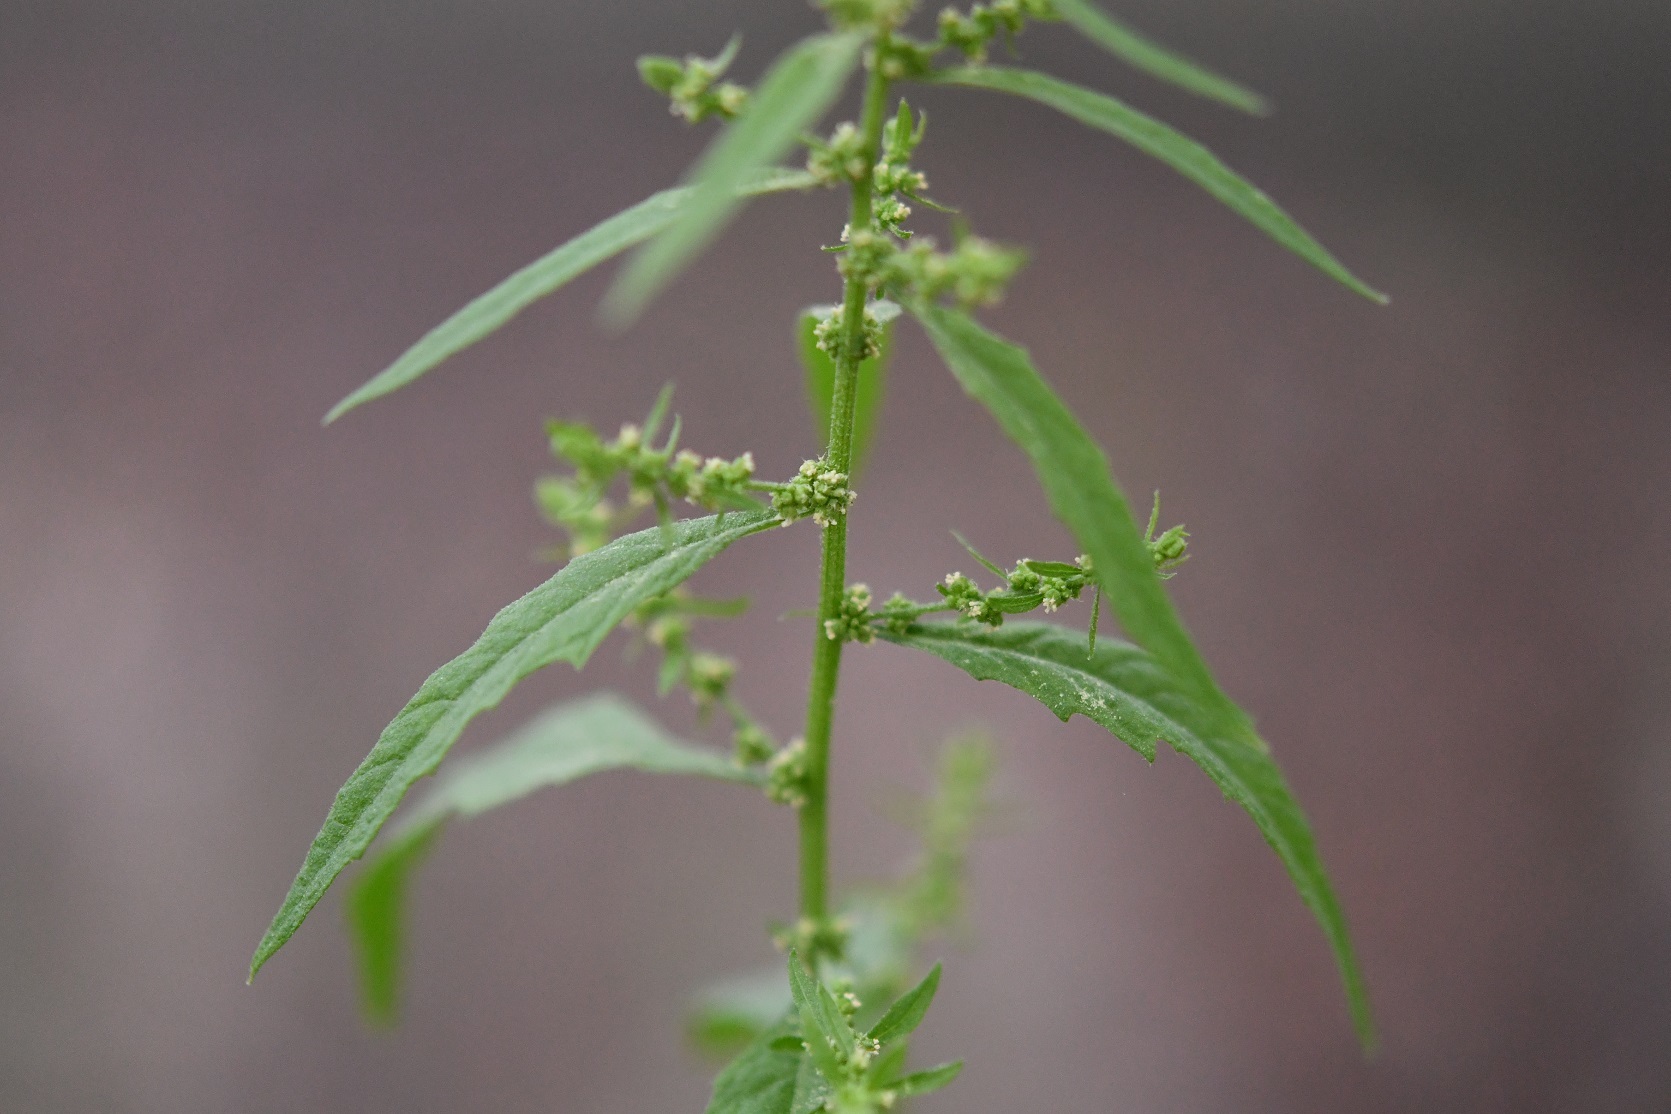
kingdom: Plantae
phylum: Tracheophyta
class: Magnoliopsida
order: Caryophyllales
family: Amaranthaceae
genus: Dysphania
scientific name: Dysphania ambrosioides
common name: Wormseed
